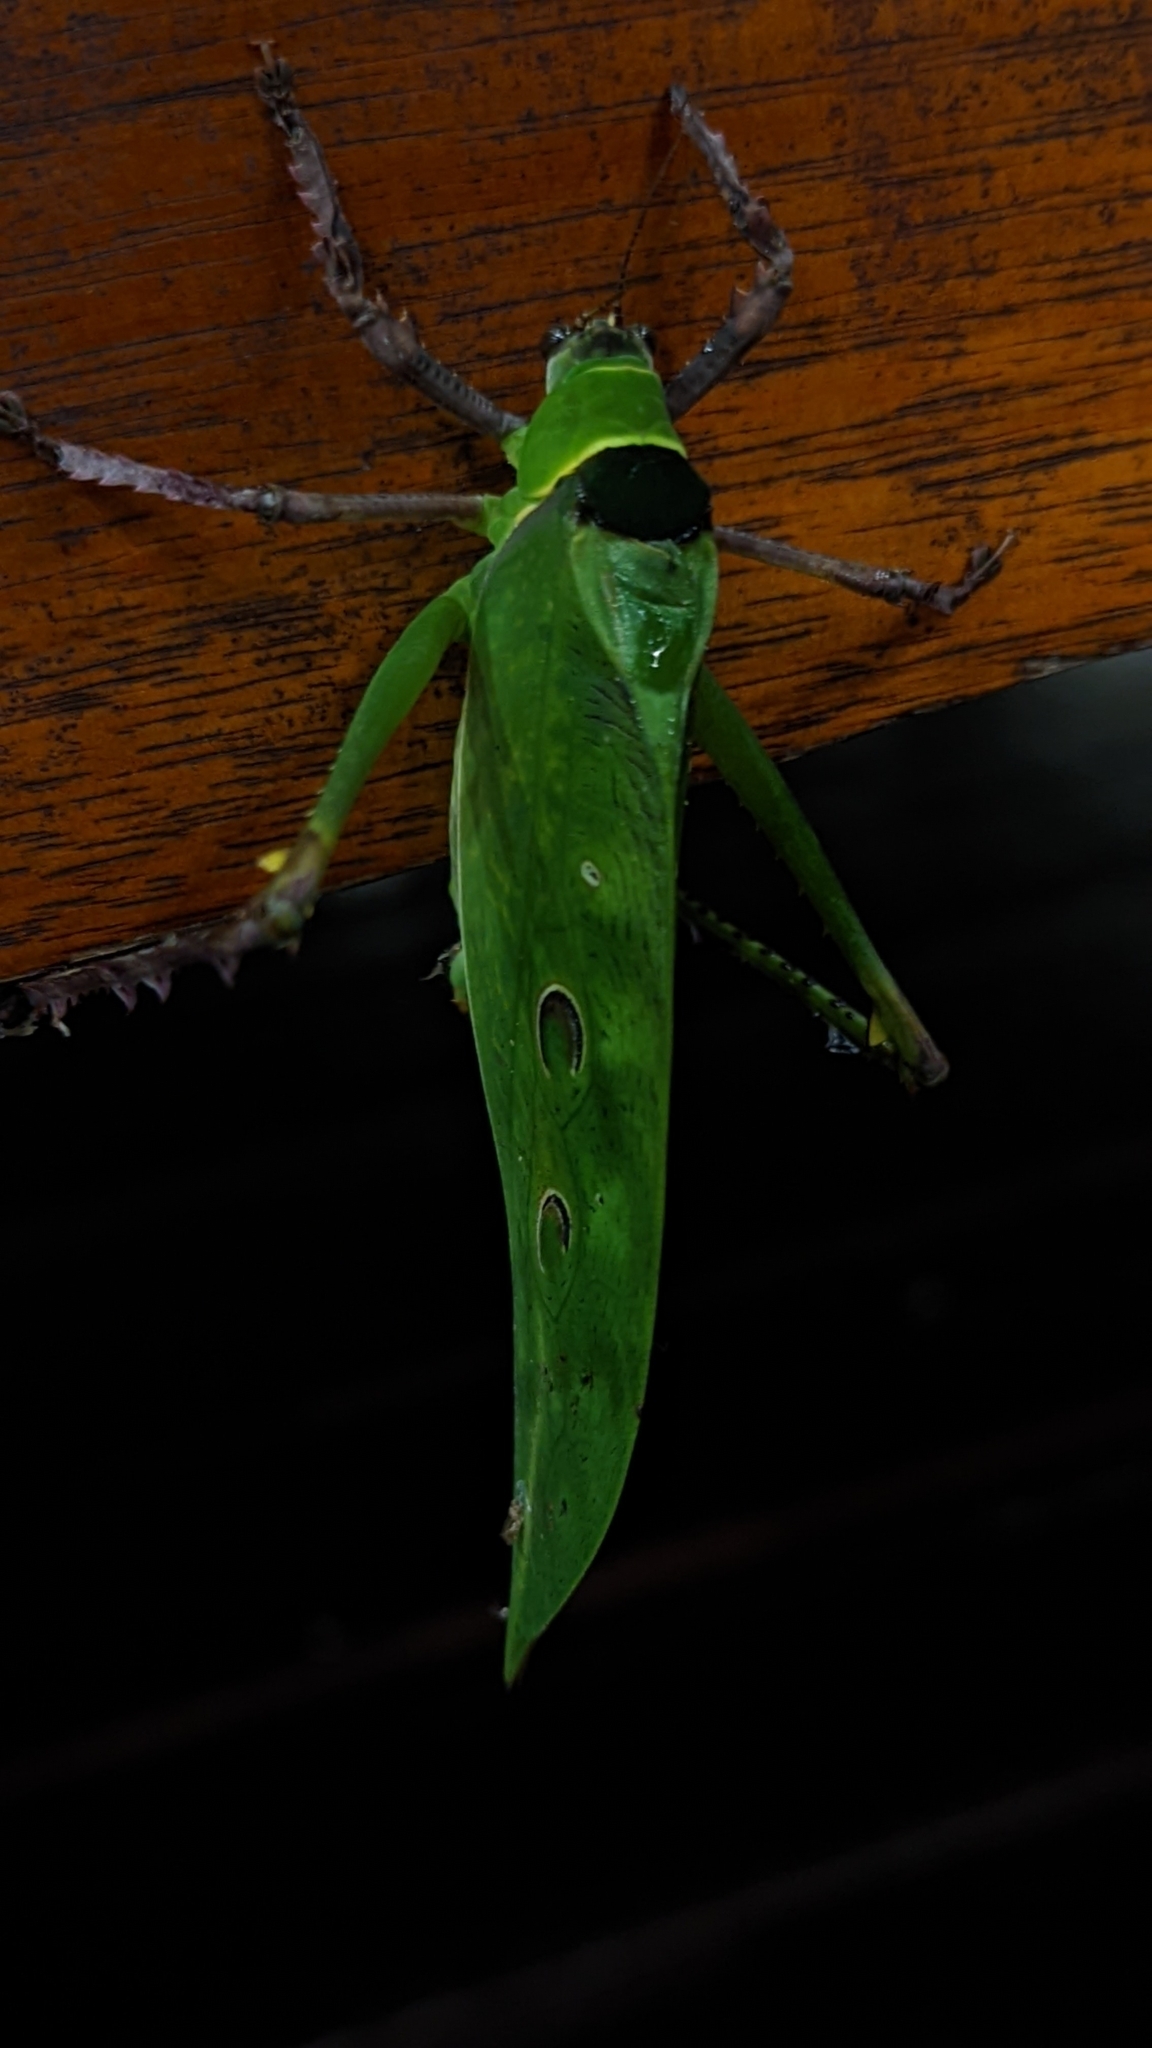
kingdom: Animalia
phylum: Arthropoda
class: Insecta
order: Orthoptera
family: Tettigoniidae
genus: Ancylecha
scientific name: Ancylecha fenestrata
